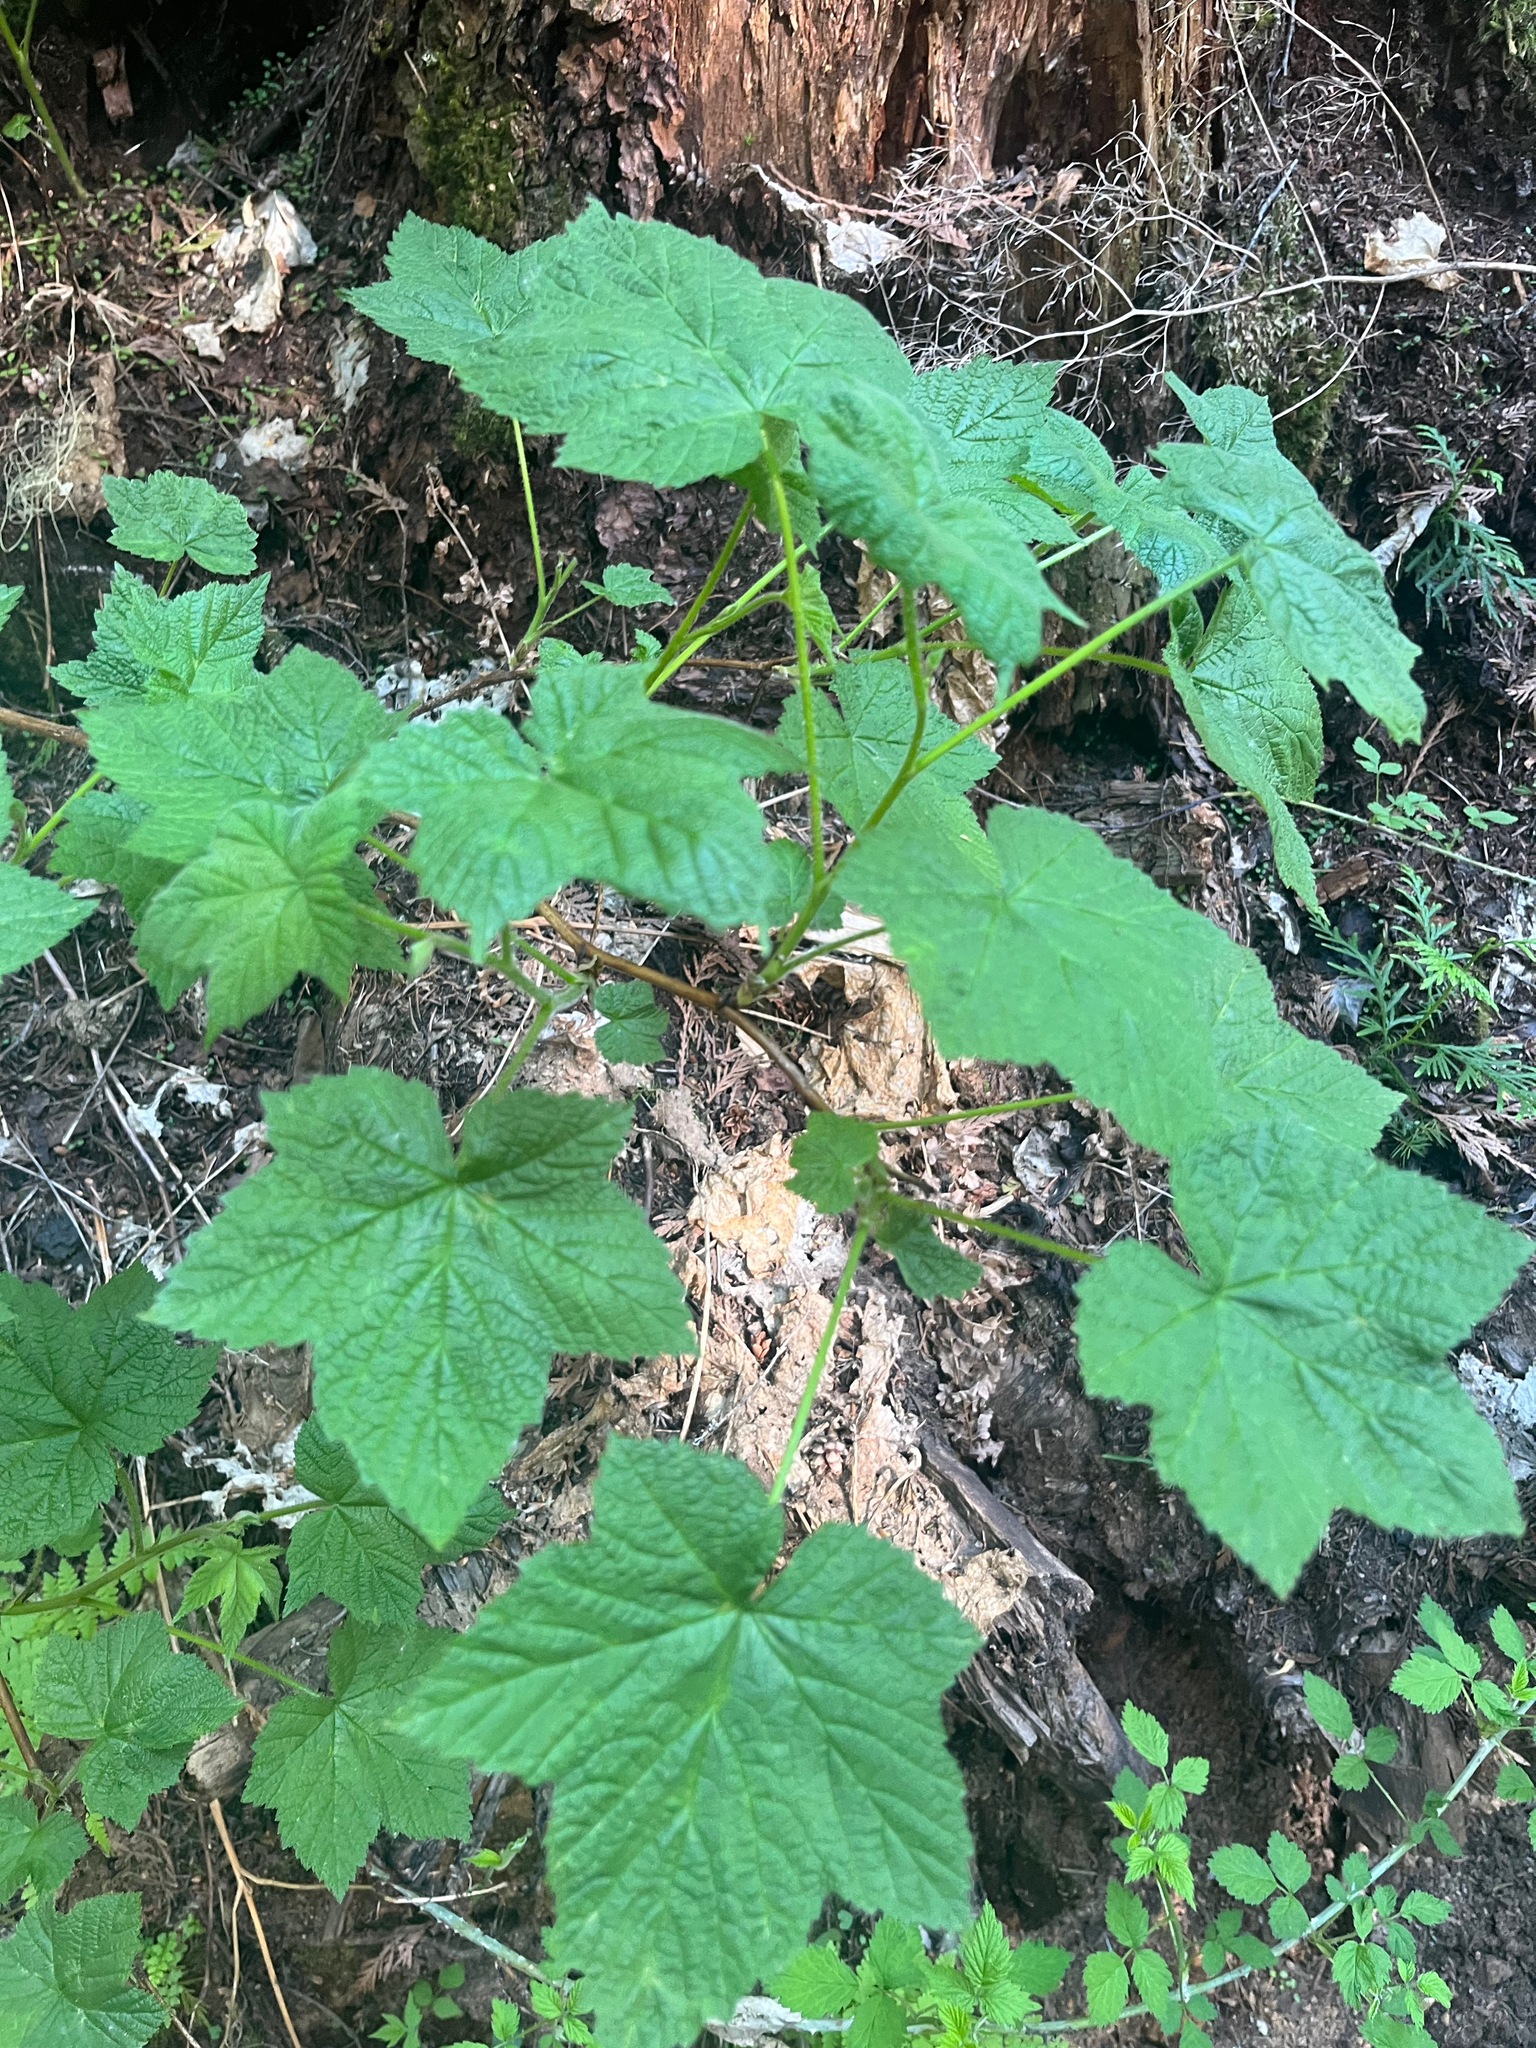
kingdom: Plantae
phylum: Tracheophyta
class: Magnoliopsida
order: Rosales
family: Rosaceae
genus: Rubus
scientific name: Rubus parviflorus
